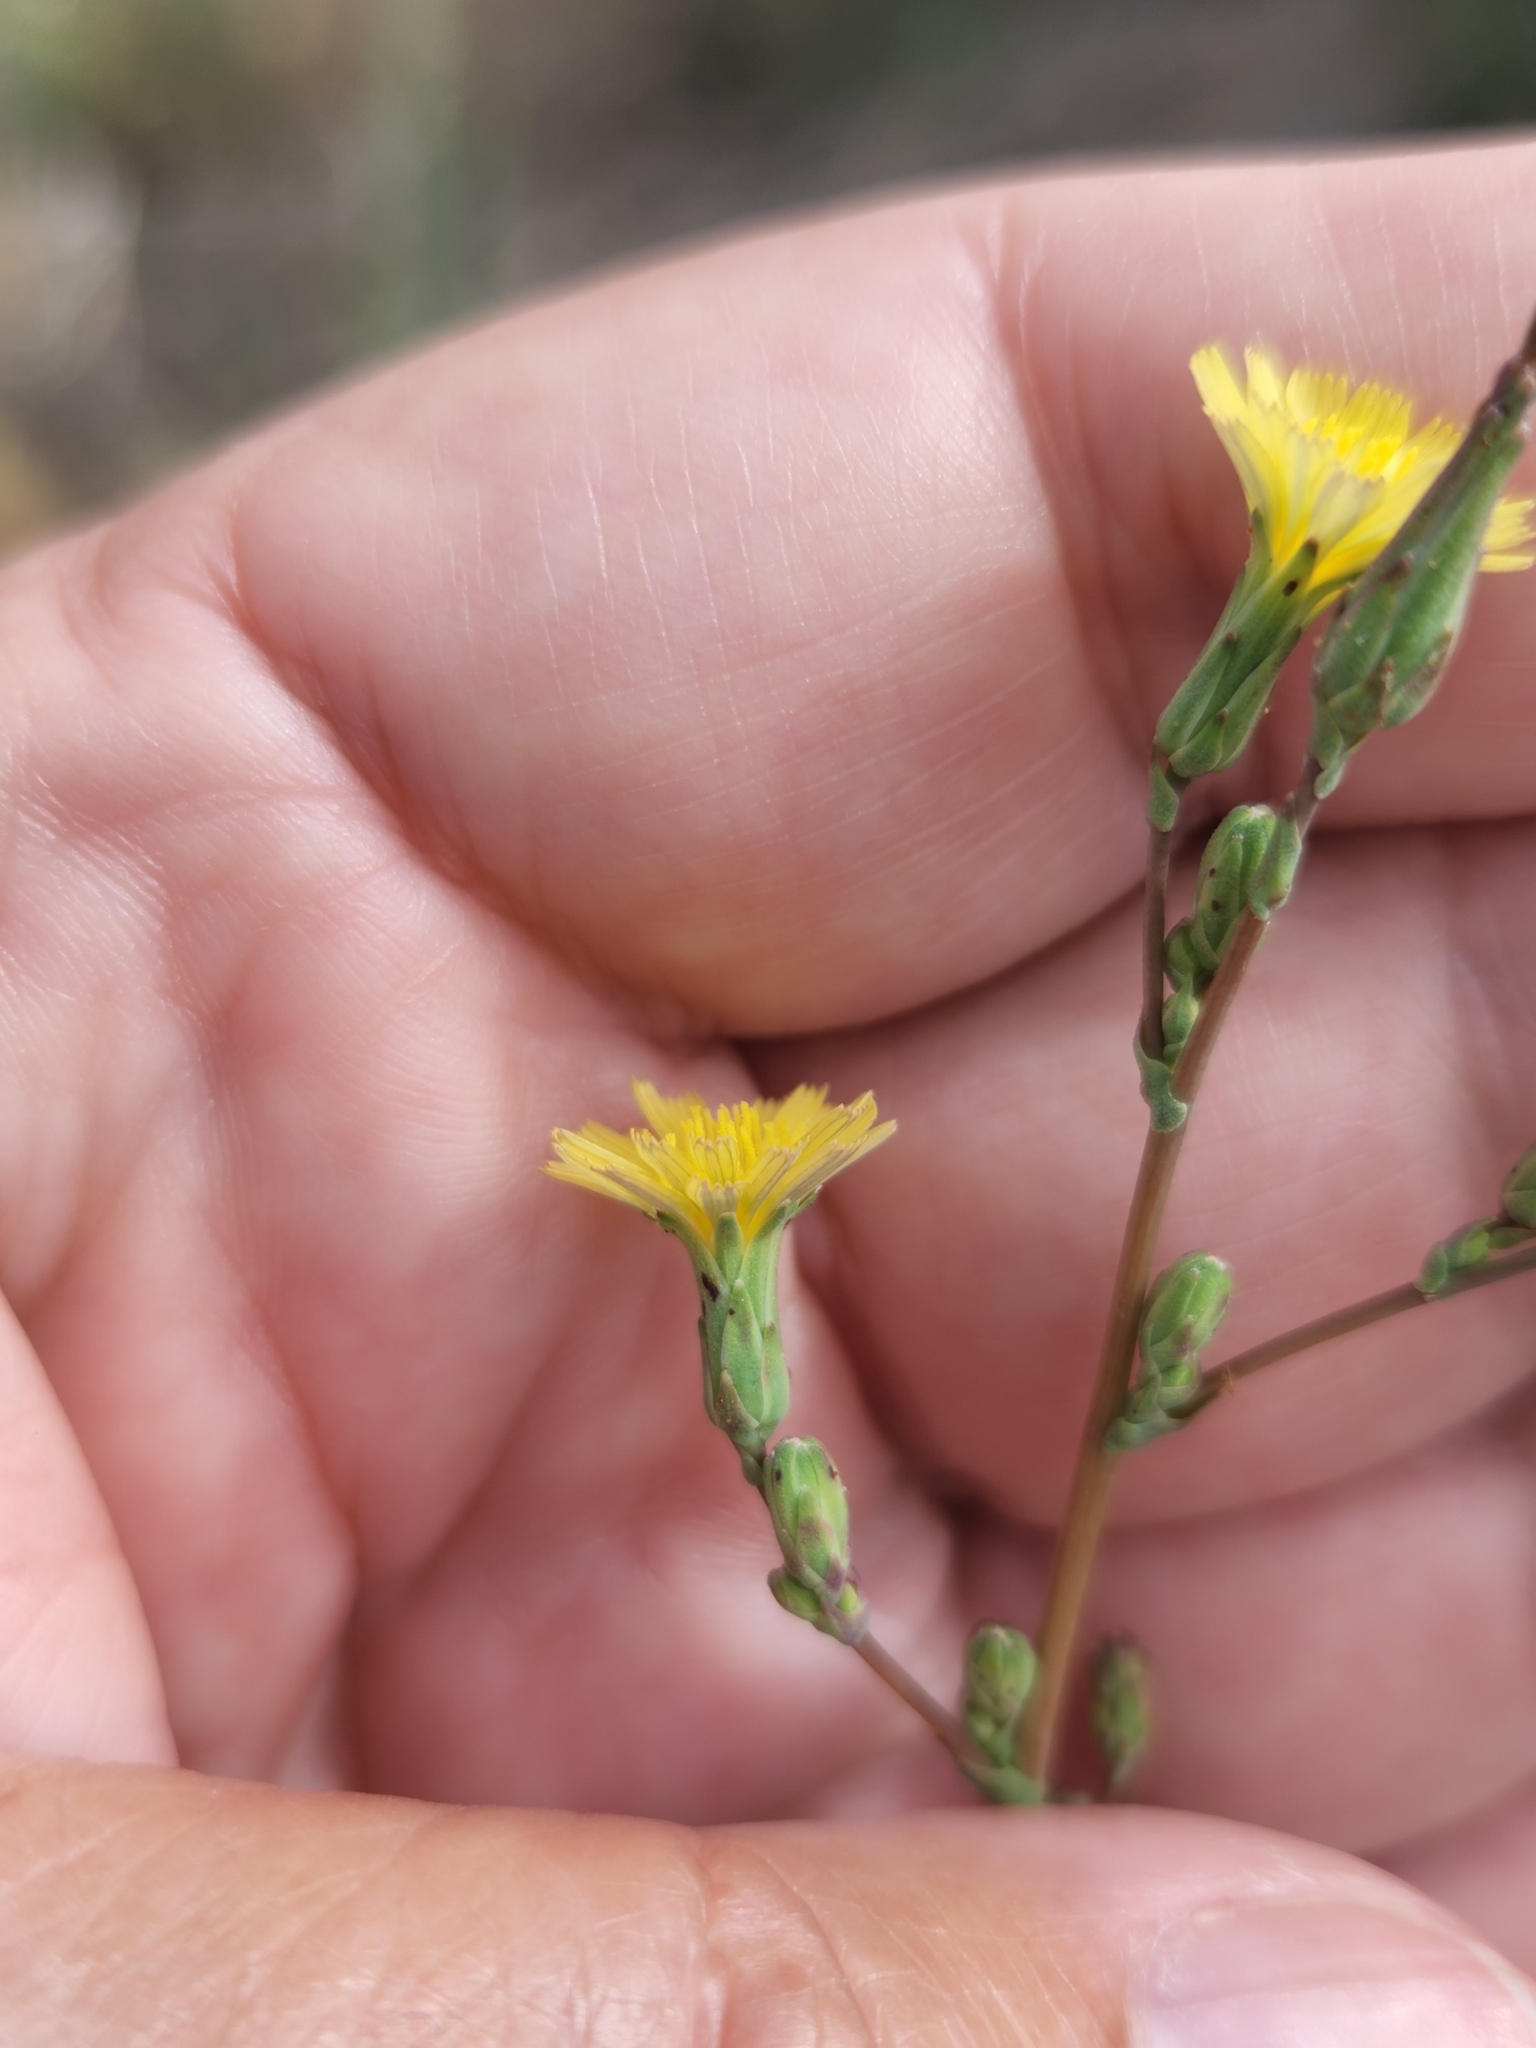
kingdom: Plantae
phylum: Tracheophyta
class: Magnoliopsida
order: Asterales
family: Asteraceae
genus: Lactuca
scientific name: Lactuca serriola
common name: Prickly lettuce
